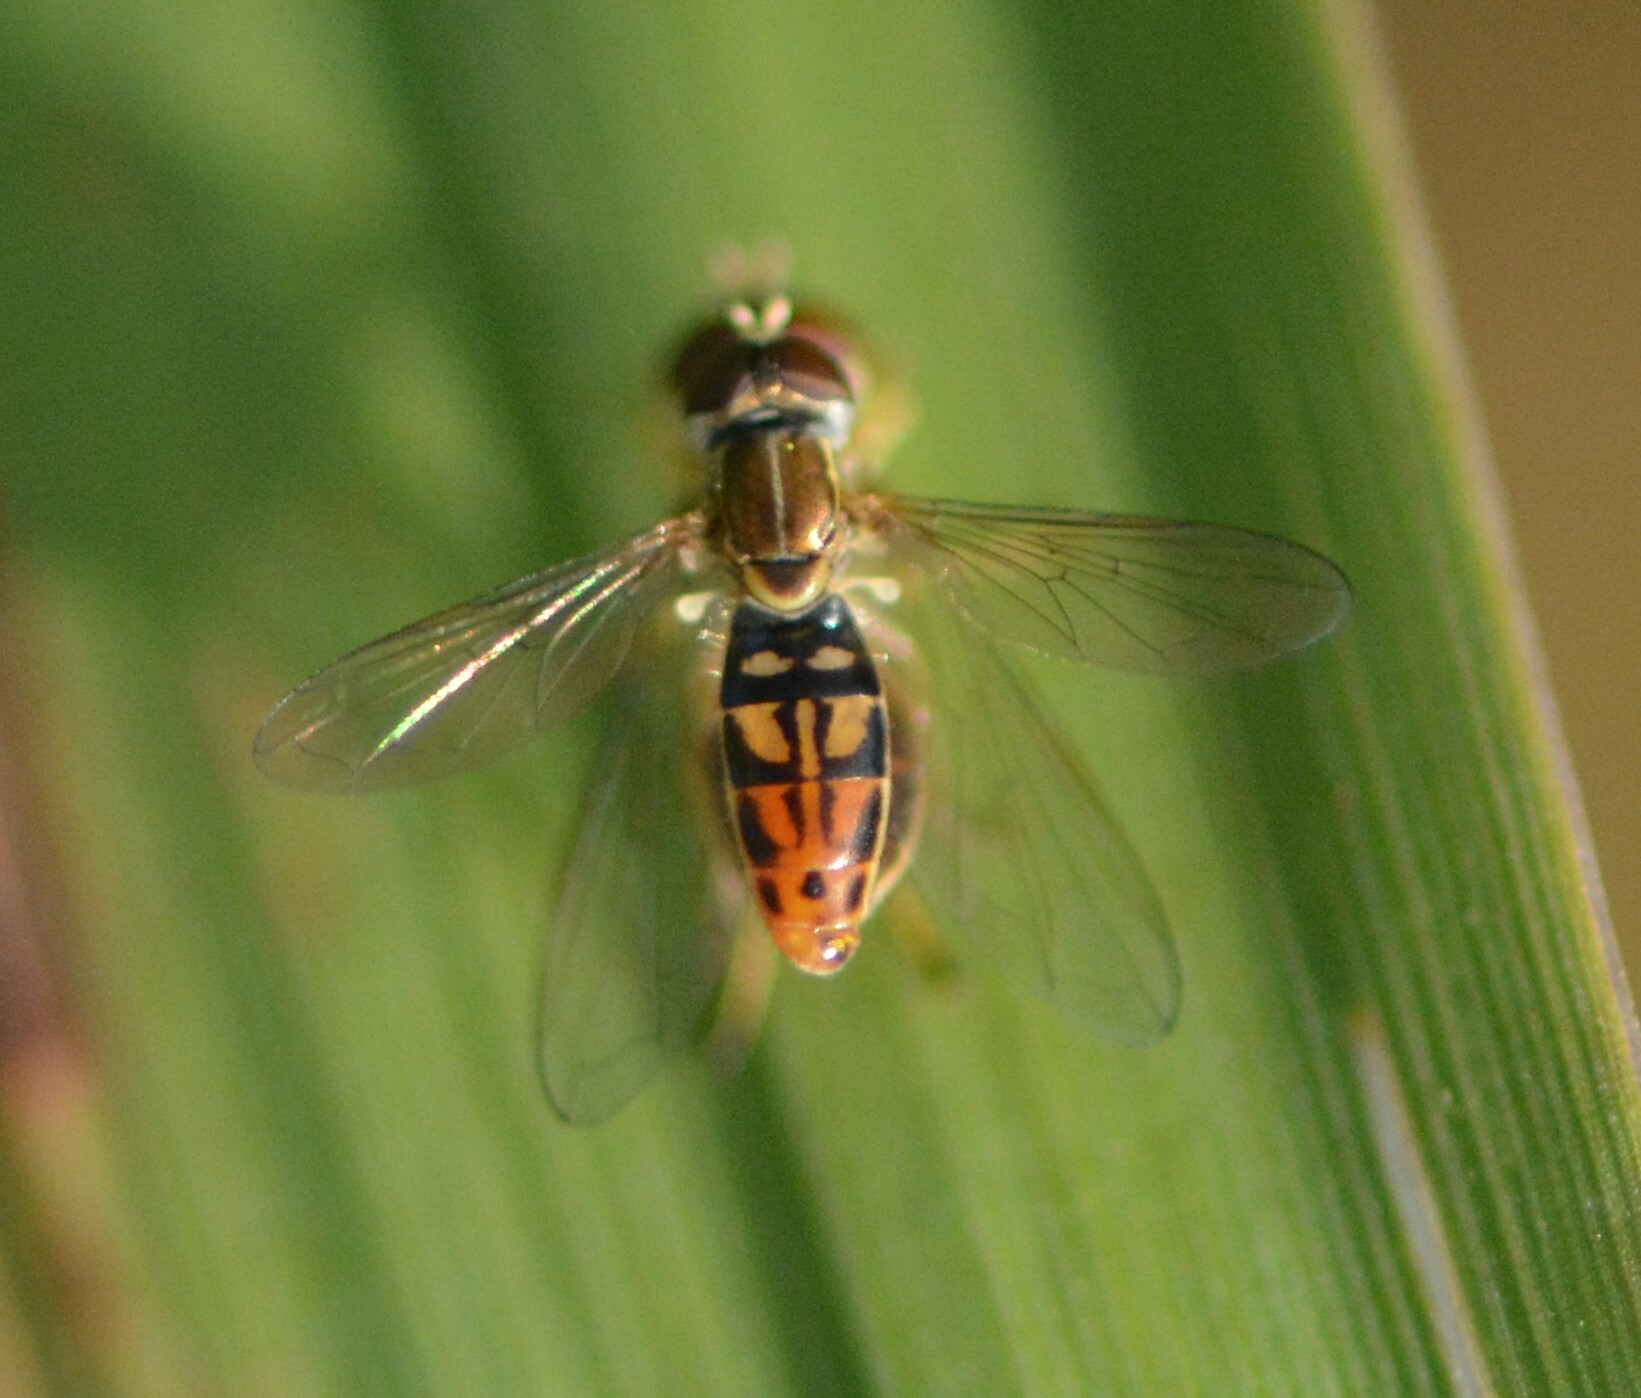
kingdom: Animalia
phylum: Arthropoda
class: Insecta
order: Diptera
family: Syrphidae
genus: Toxomerus
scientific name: Toxomerus marginatus
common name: Syrphid fly
